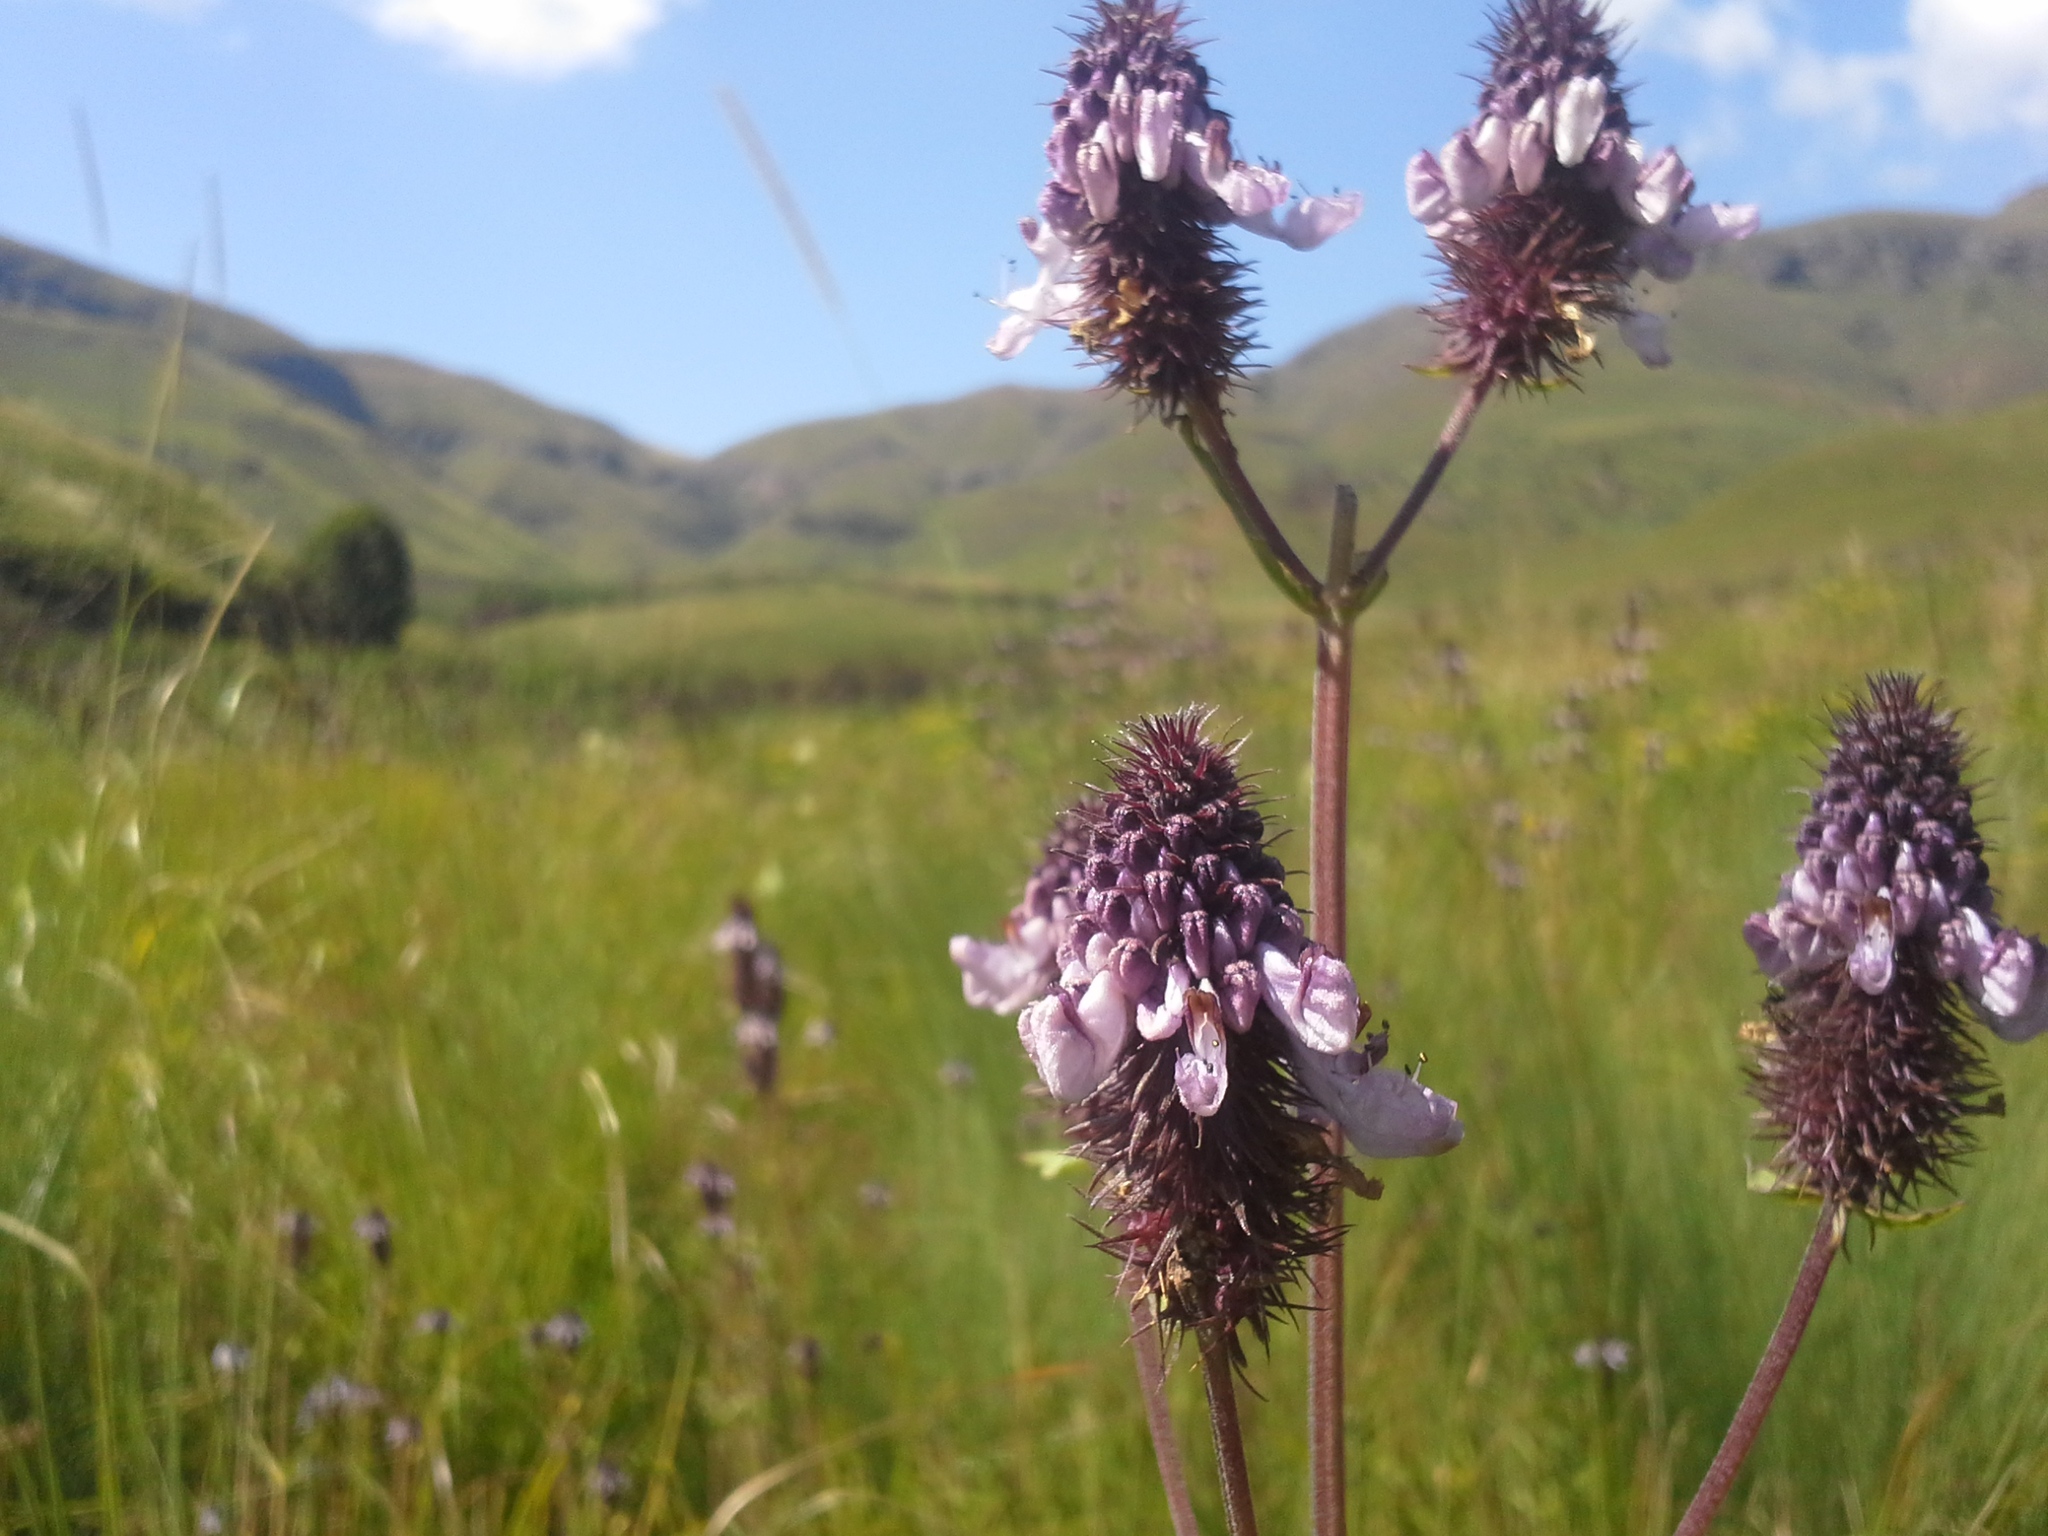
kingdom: Plantae
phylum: Tracheophyta
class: Magnoliopsida
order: Lamiales
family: Lamiaceae
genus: Coleus
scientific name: Coleus livingstonei
